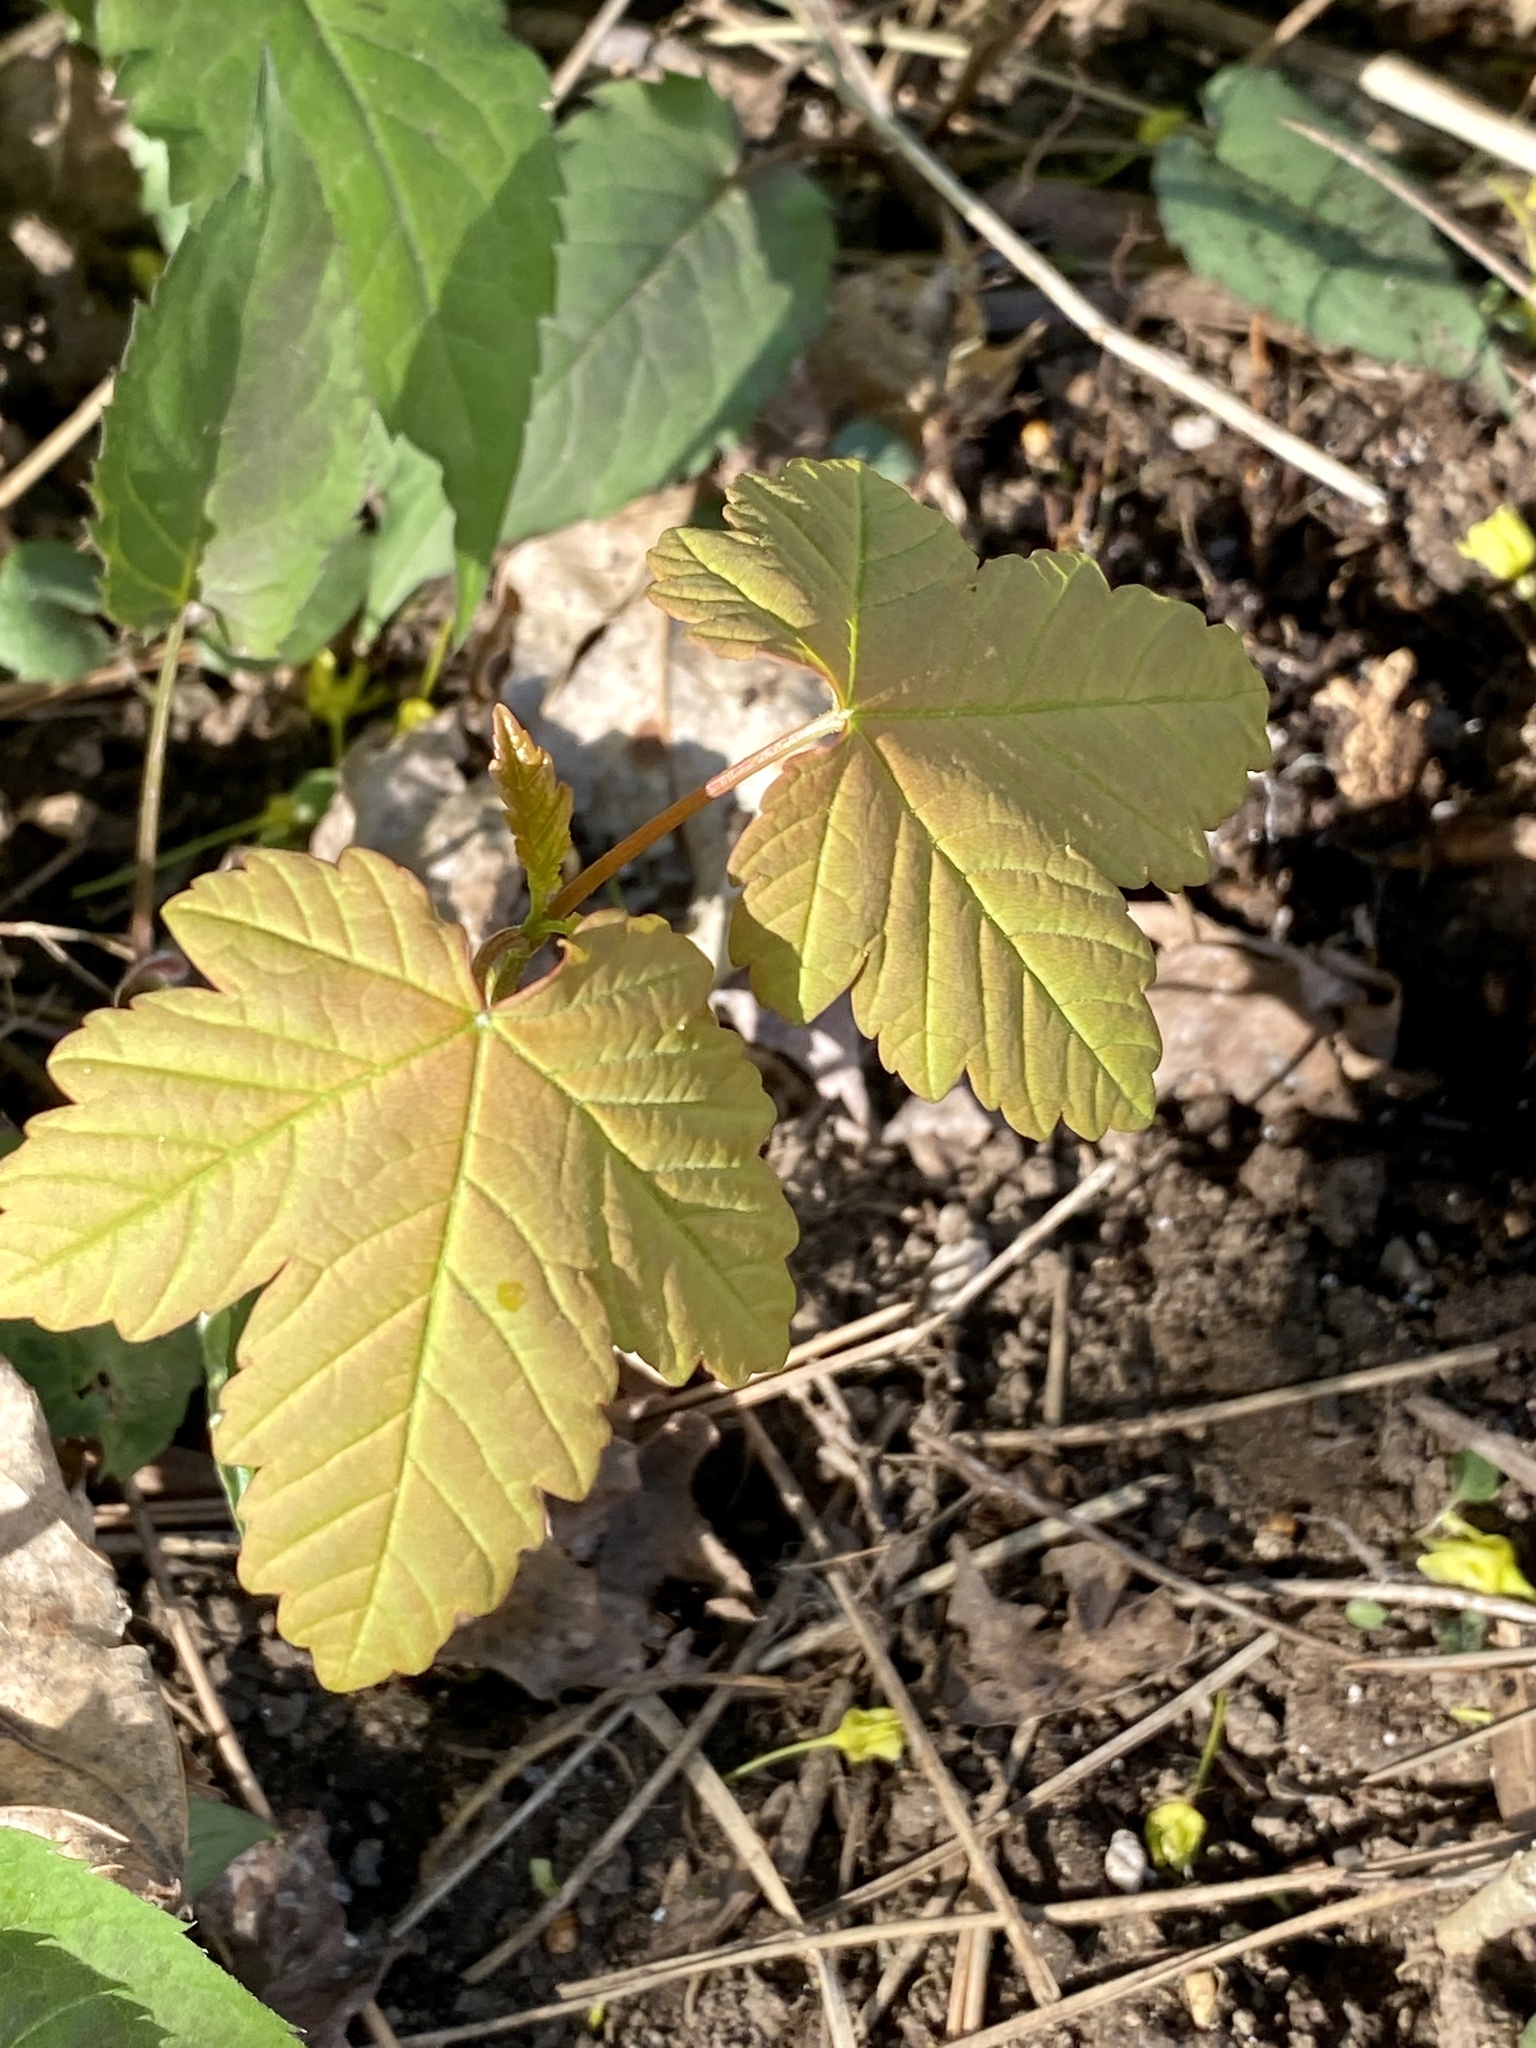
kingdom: Plantae
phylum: Tracheophyta
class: Magnoliopsida
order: Sapindales
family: Sapindaceae
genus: Acer
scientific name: Acer pseudoplatanus
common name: Sycamore
